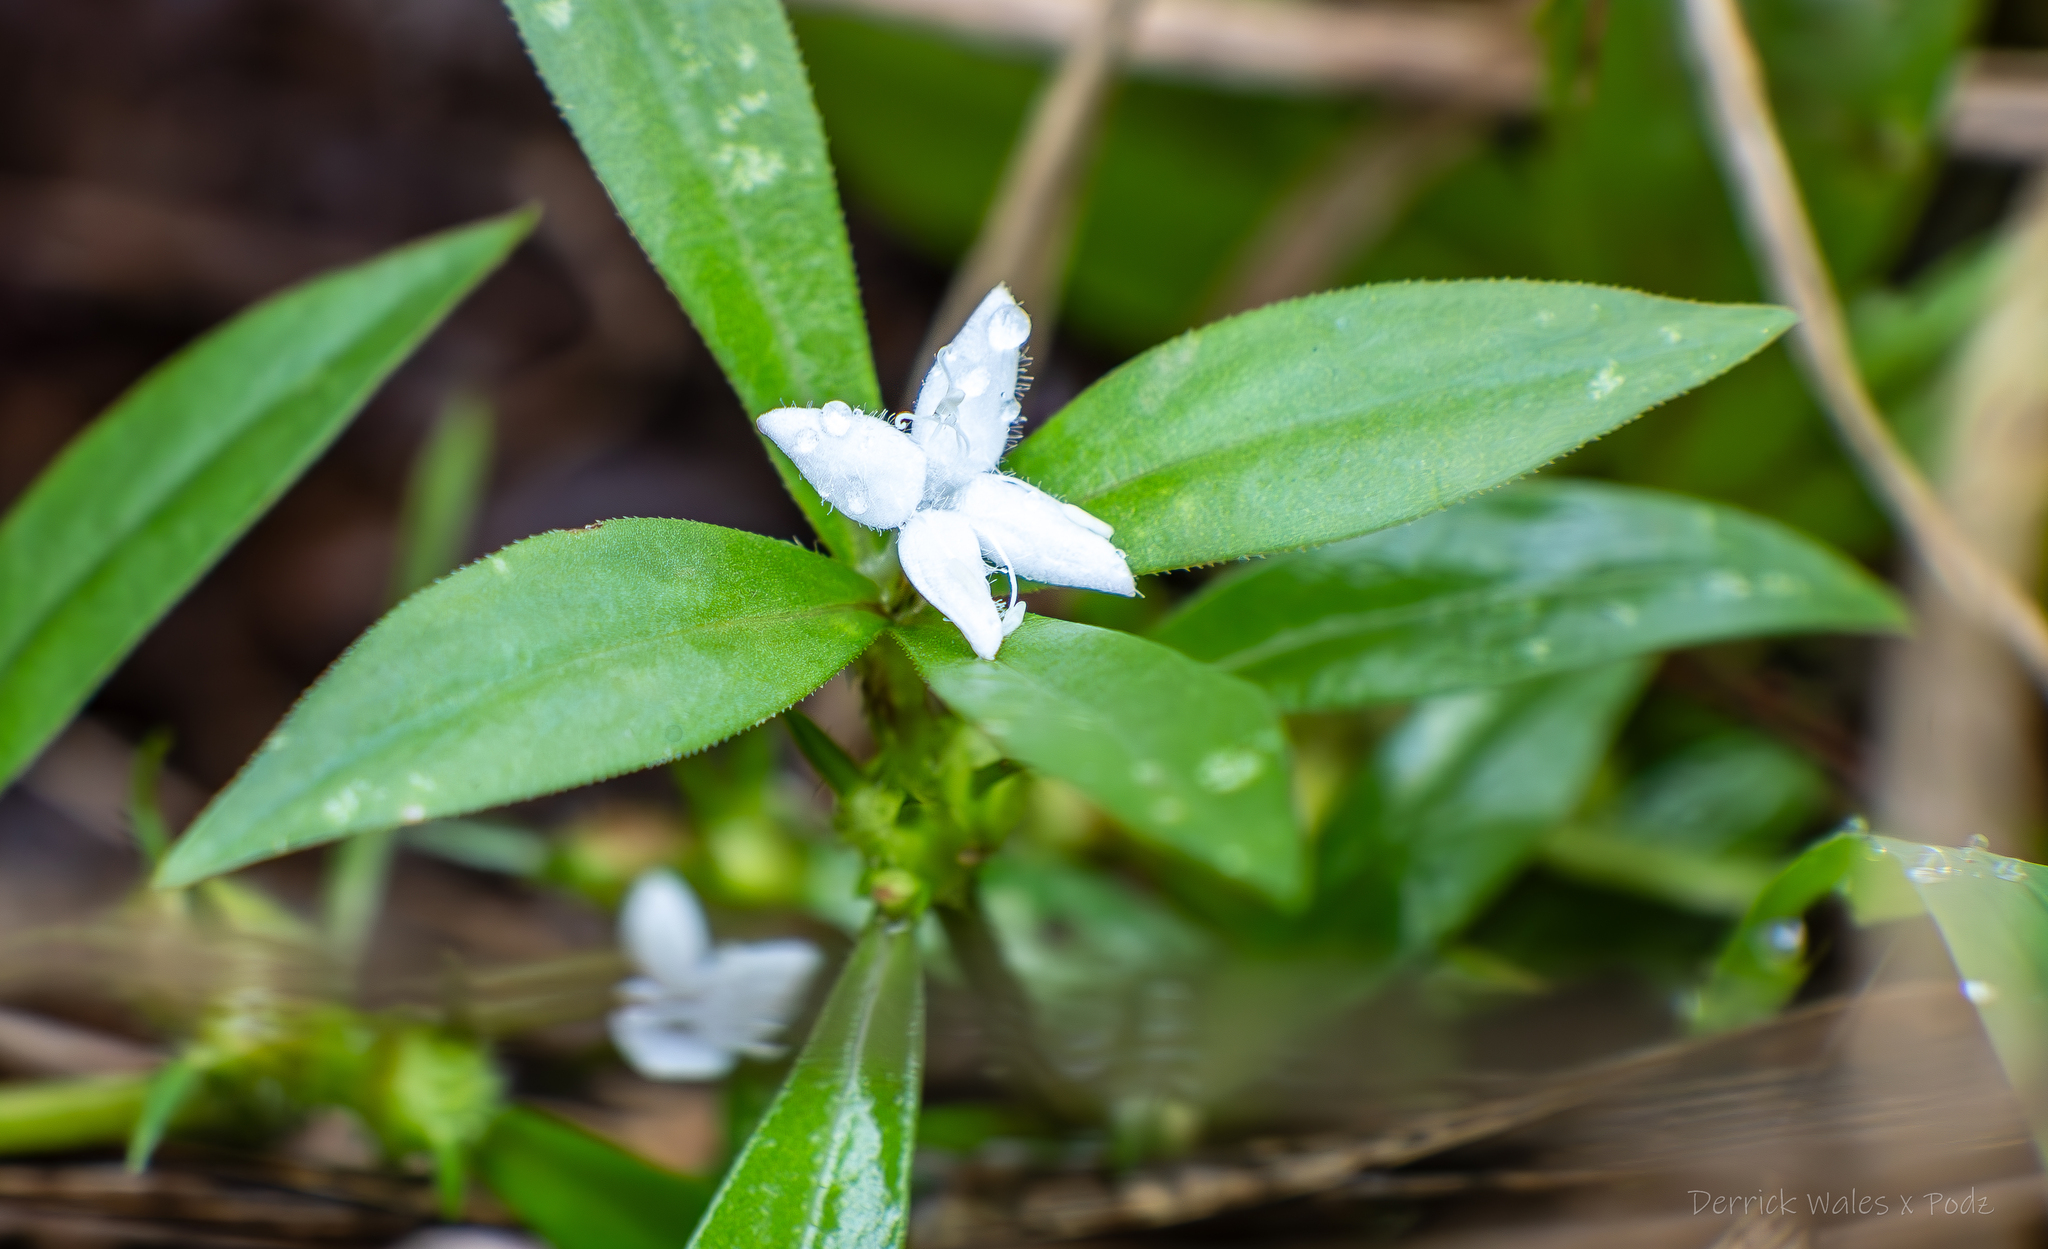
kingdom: Plantae
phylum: Tracheophyta
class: Magnoliopsida
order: Gentianales
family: Rubiaceae
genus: Diodia
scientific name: Diodia virginiana
